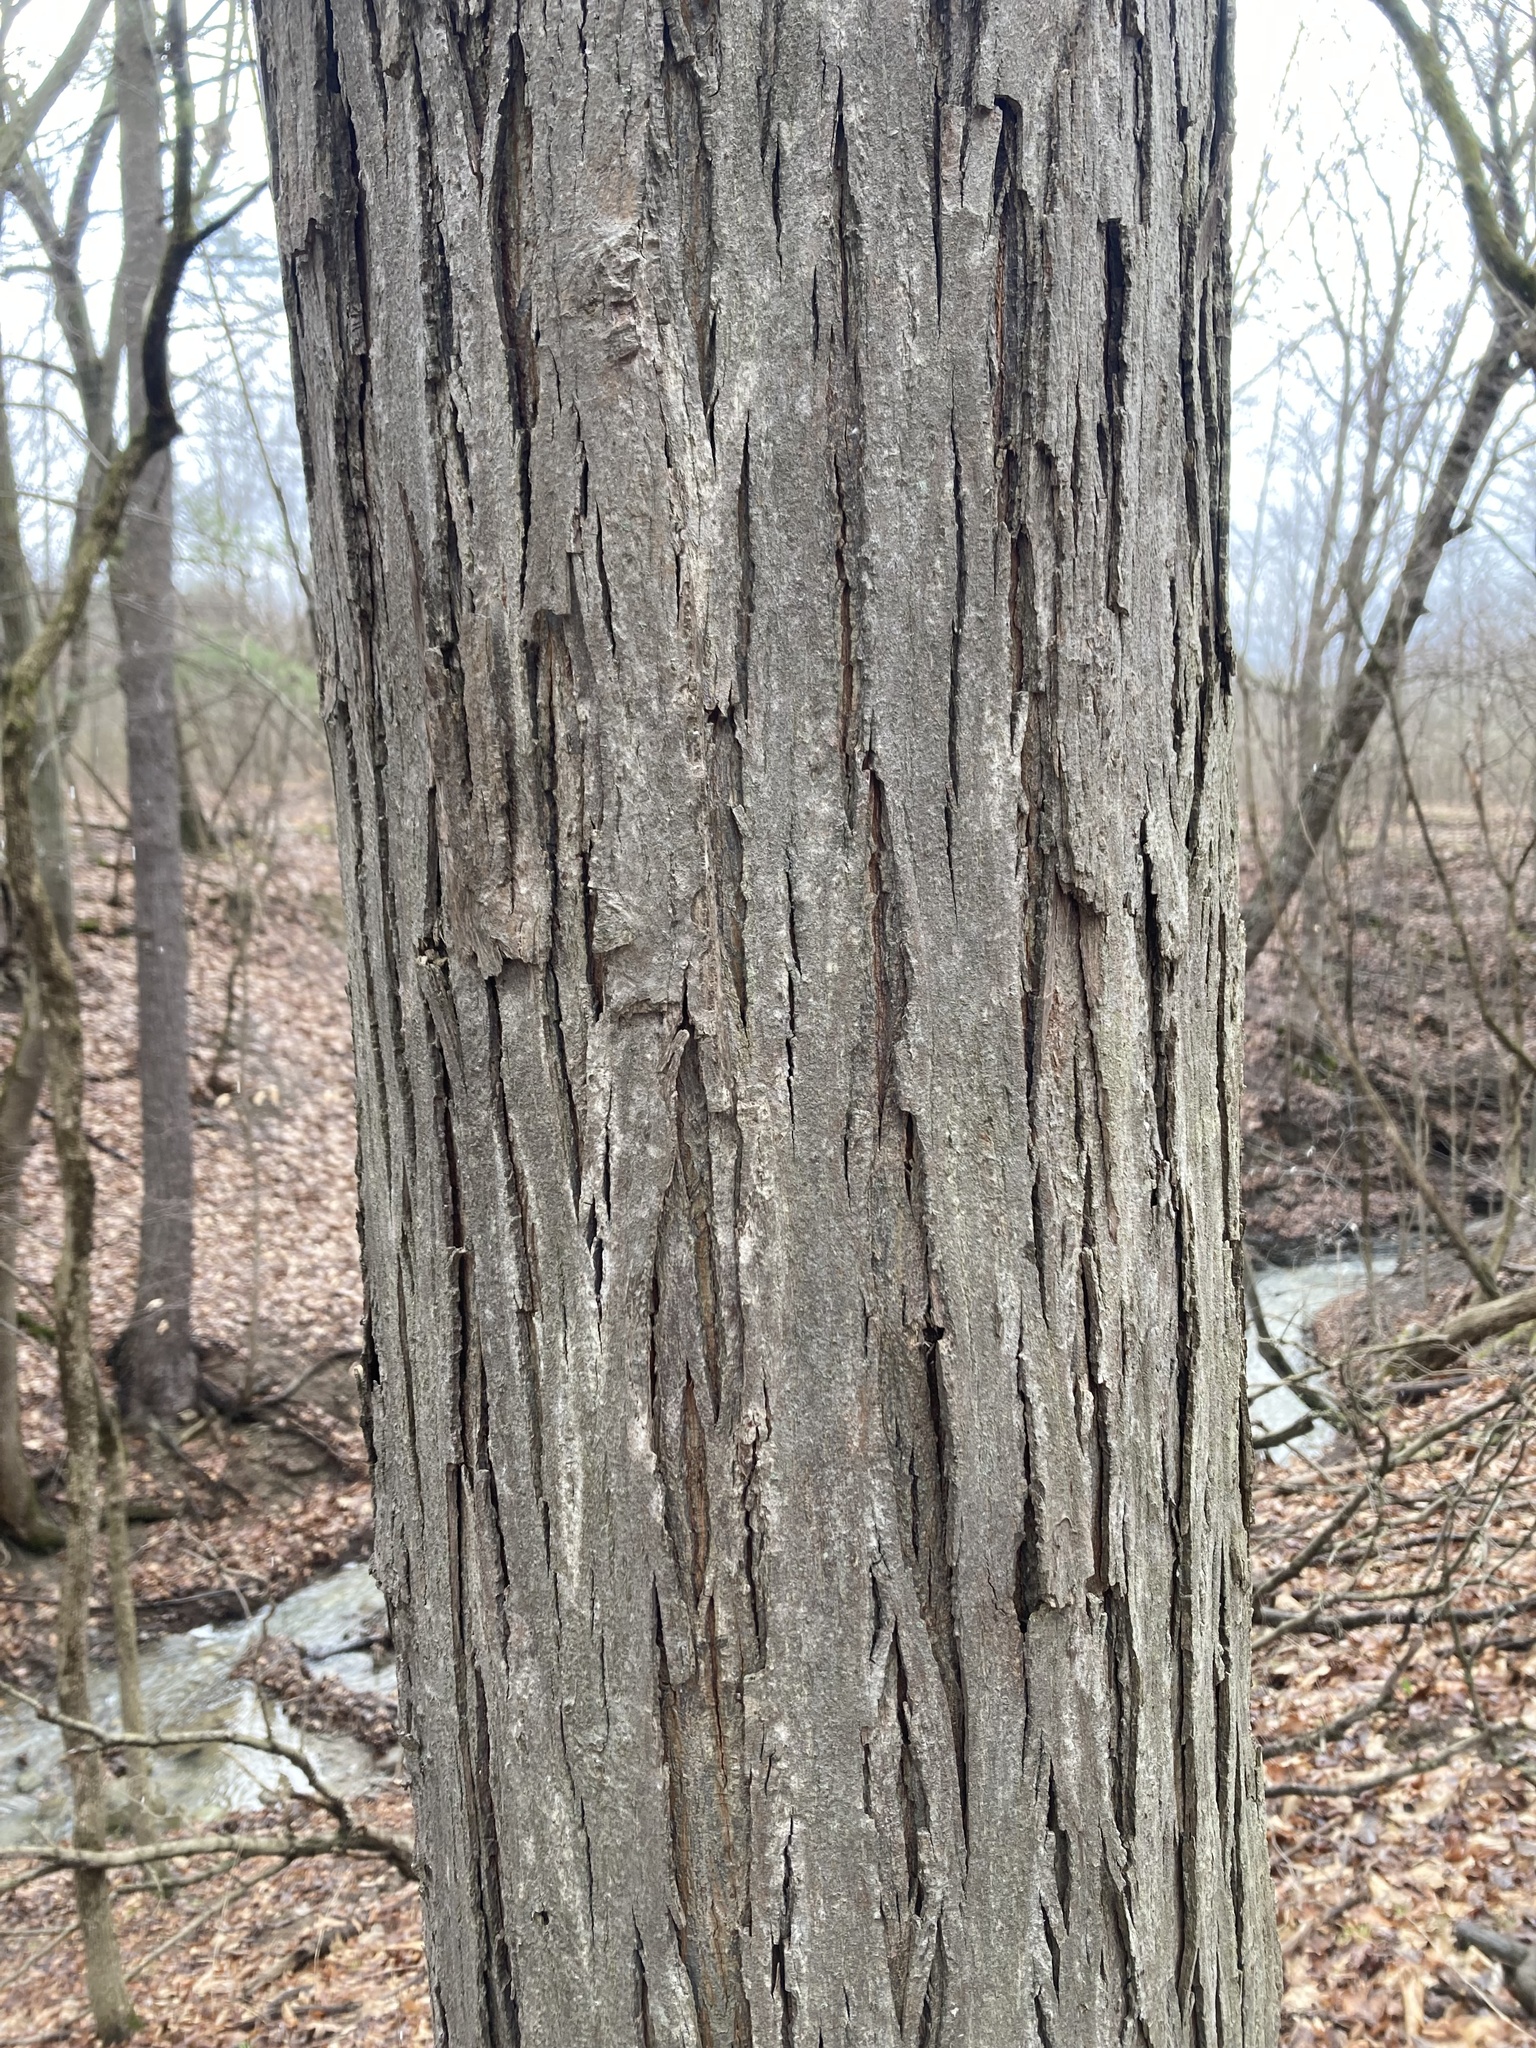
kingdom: Plantae
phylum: Tracheophyta
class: Magnoliopsida
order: Fagales
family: Juglandaceae
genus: Carya
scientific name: Carya ovata
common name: Shagbark hickory
